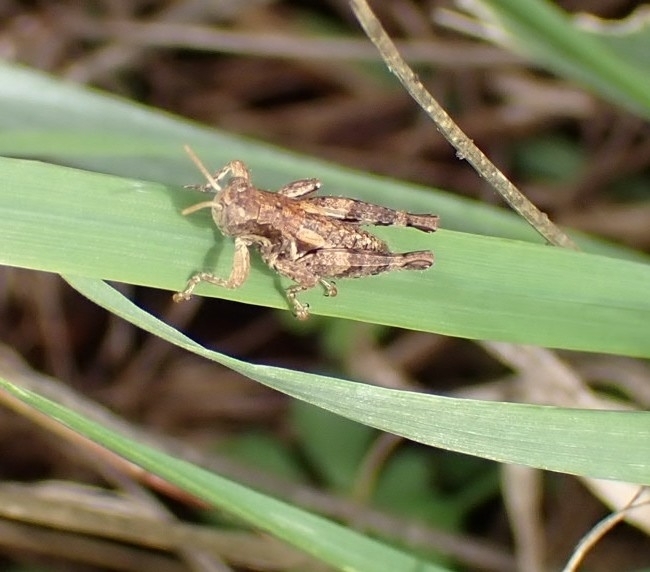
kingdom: Animalia
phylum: Arthropoda
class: Insecta
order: Orthoptera
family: Acrididae
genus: Pezotettix
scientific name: Pezotettix giornae
